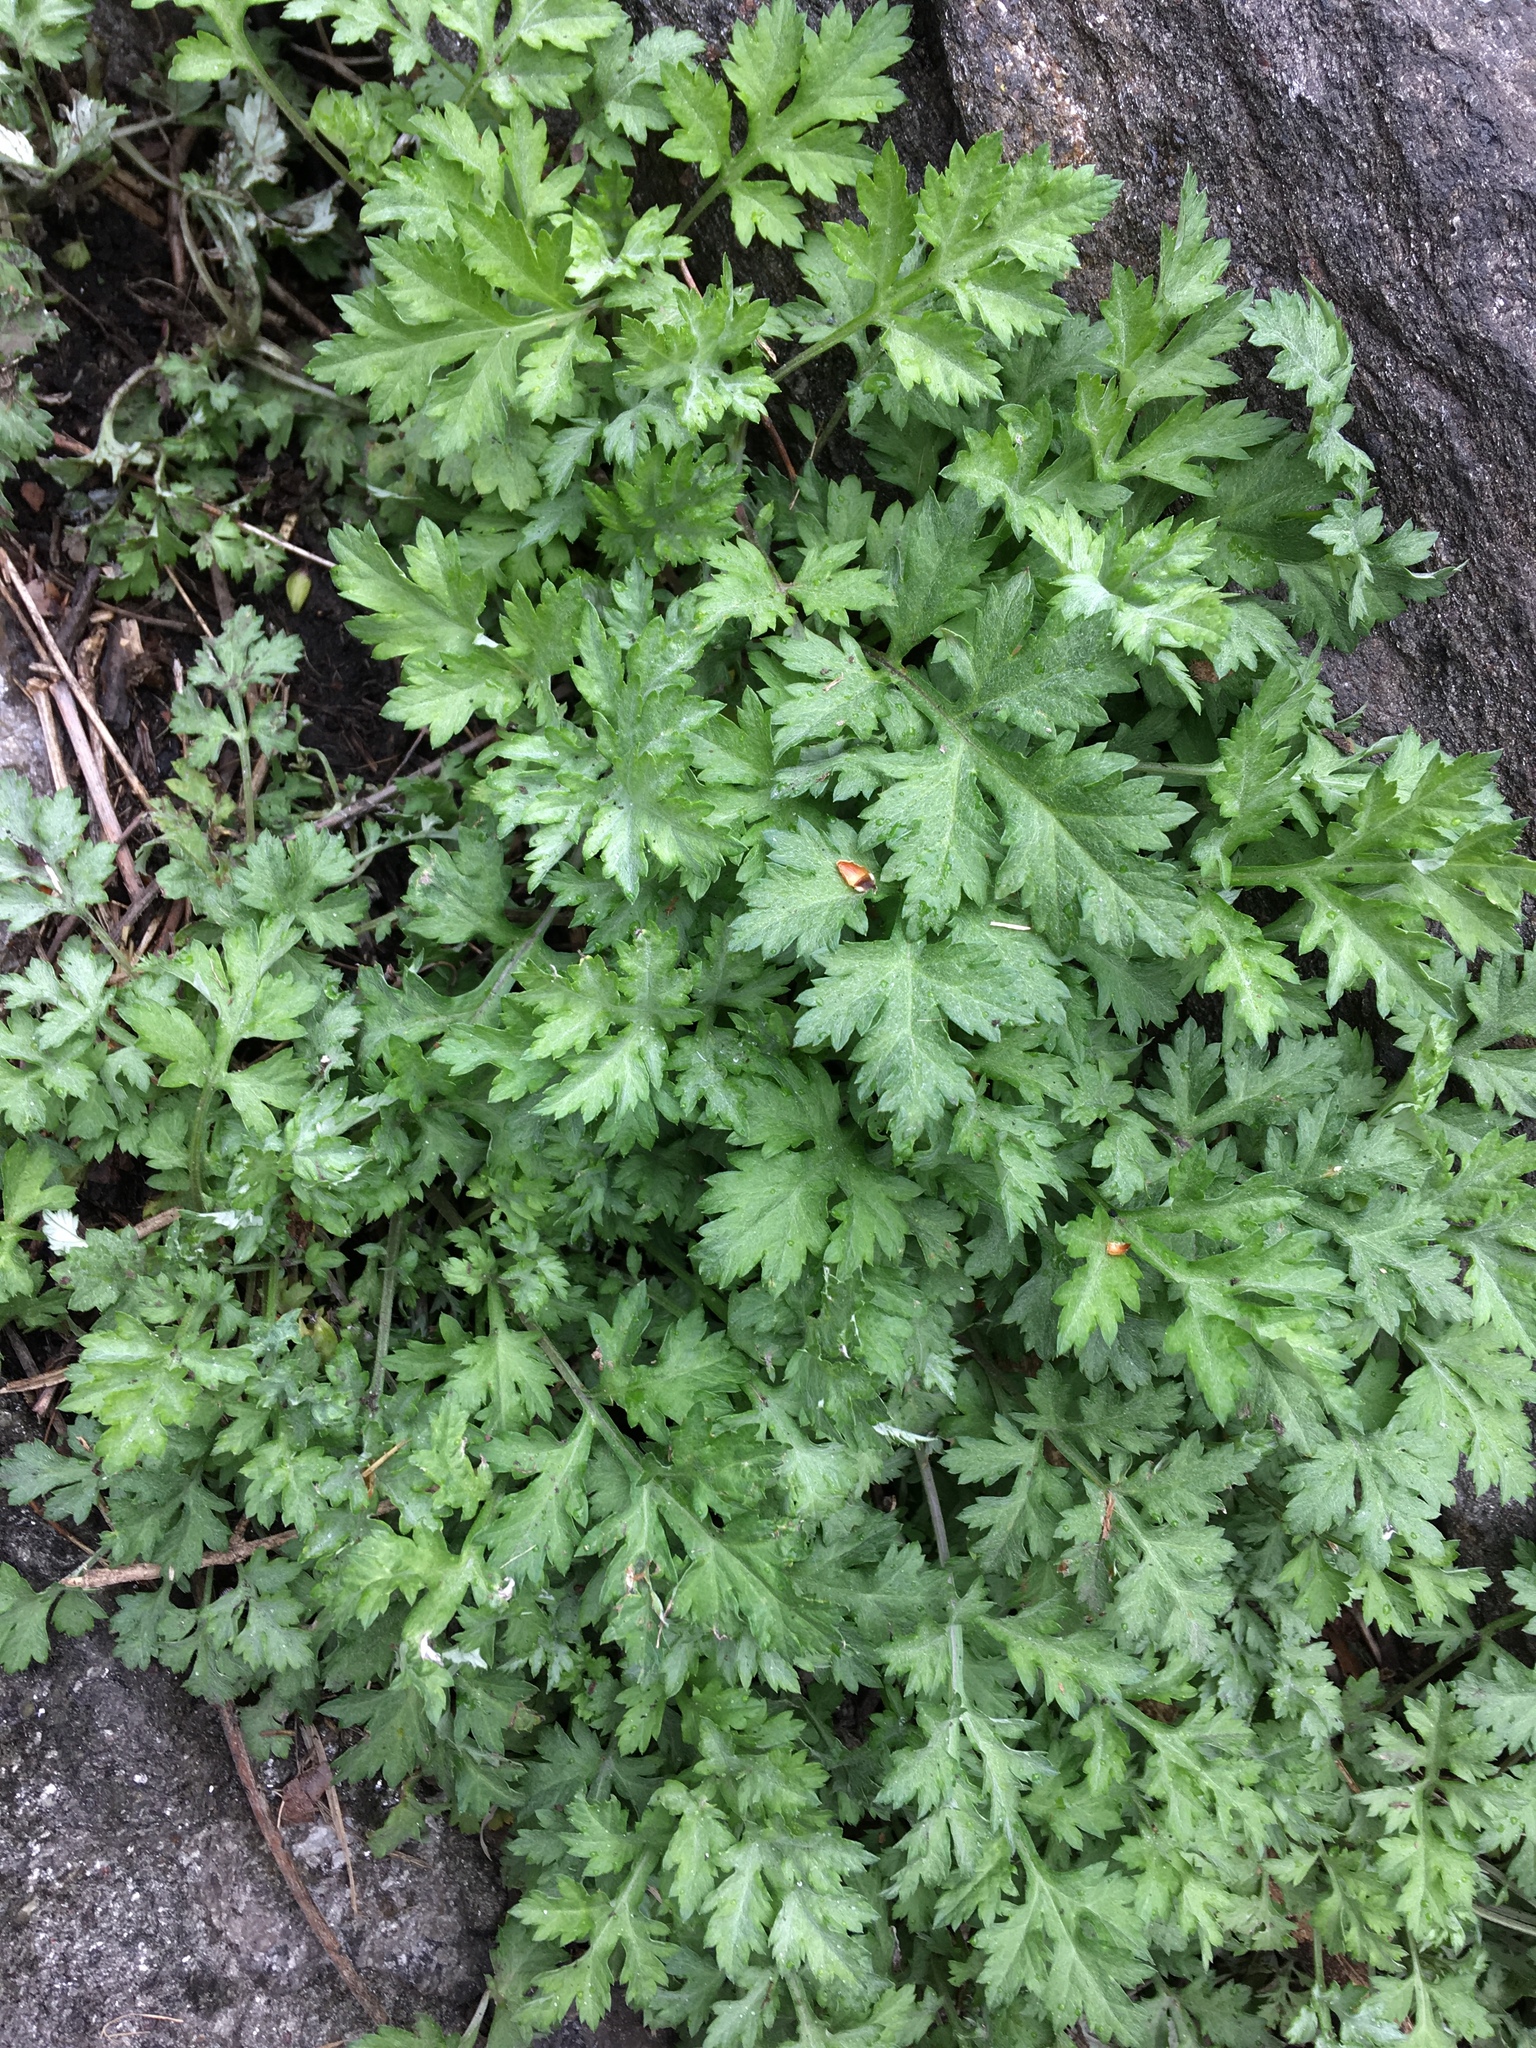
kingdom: Plantae
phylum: Tracheophyta
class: Magnoliopsida
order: Asterales
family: Asteraceae
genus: Artemisia
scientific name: Artemisia vulgaris
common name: Mugwort
